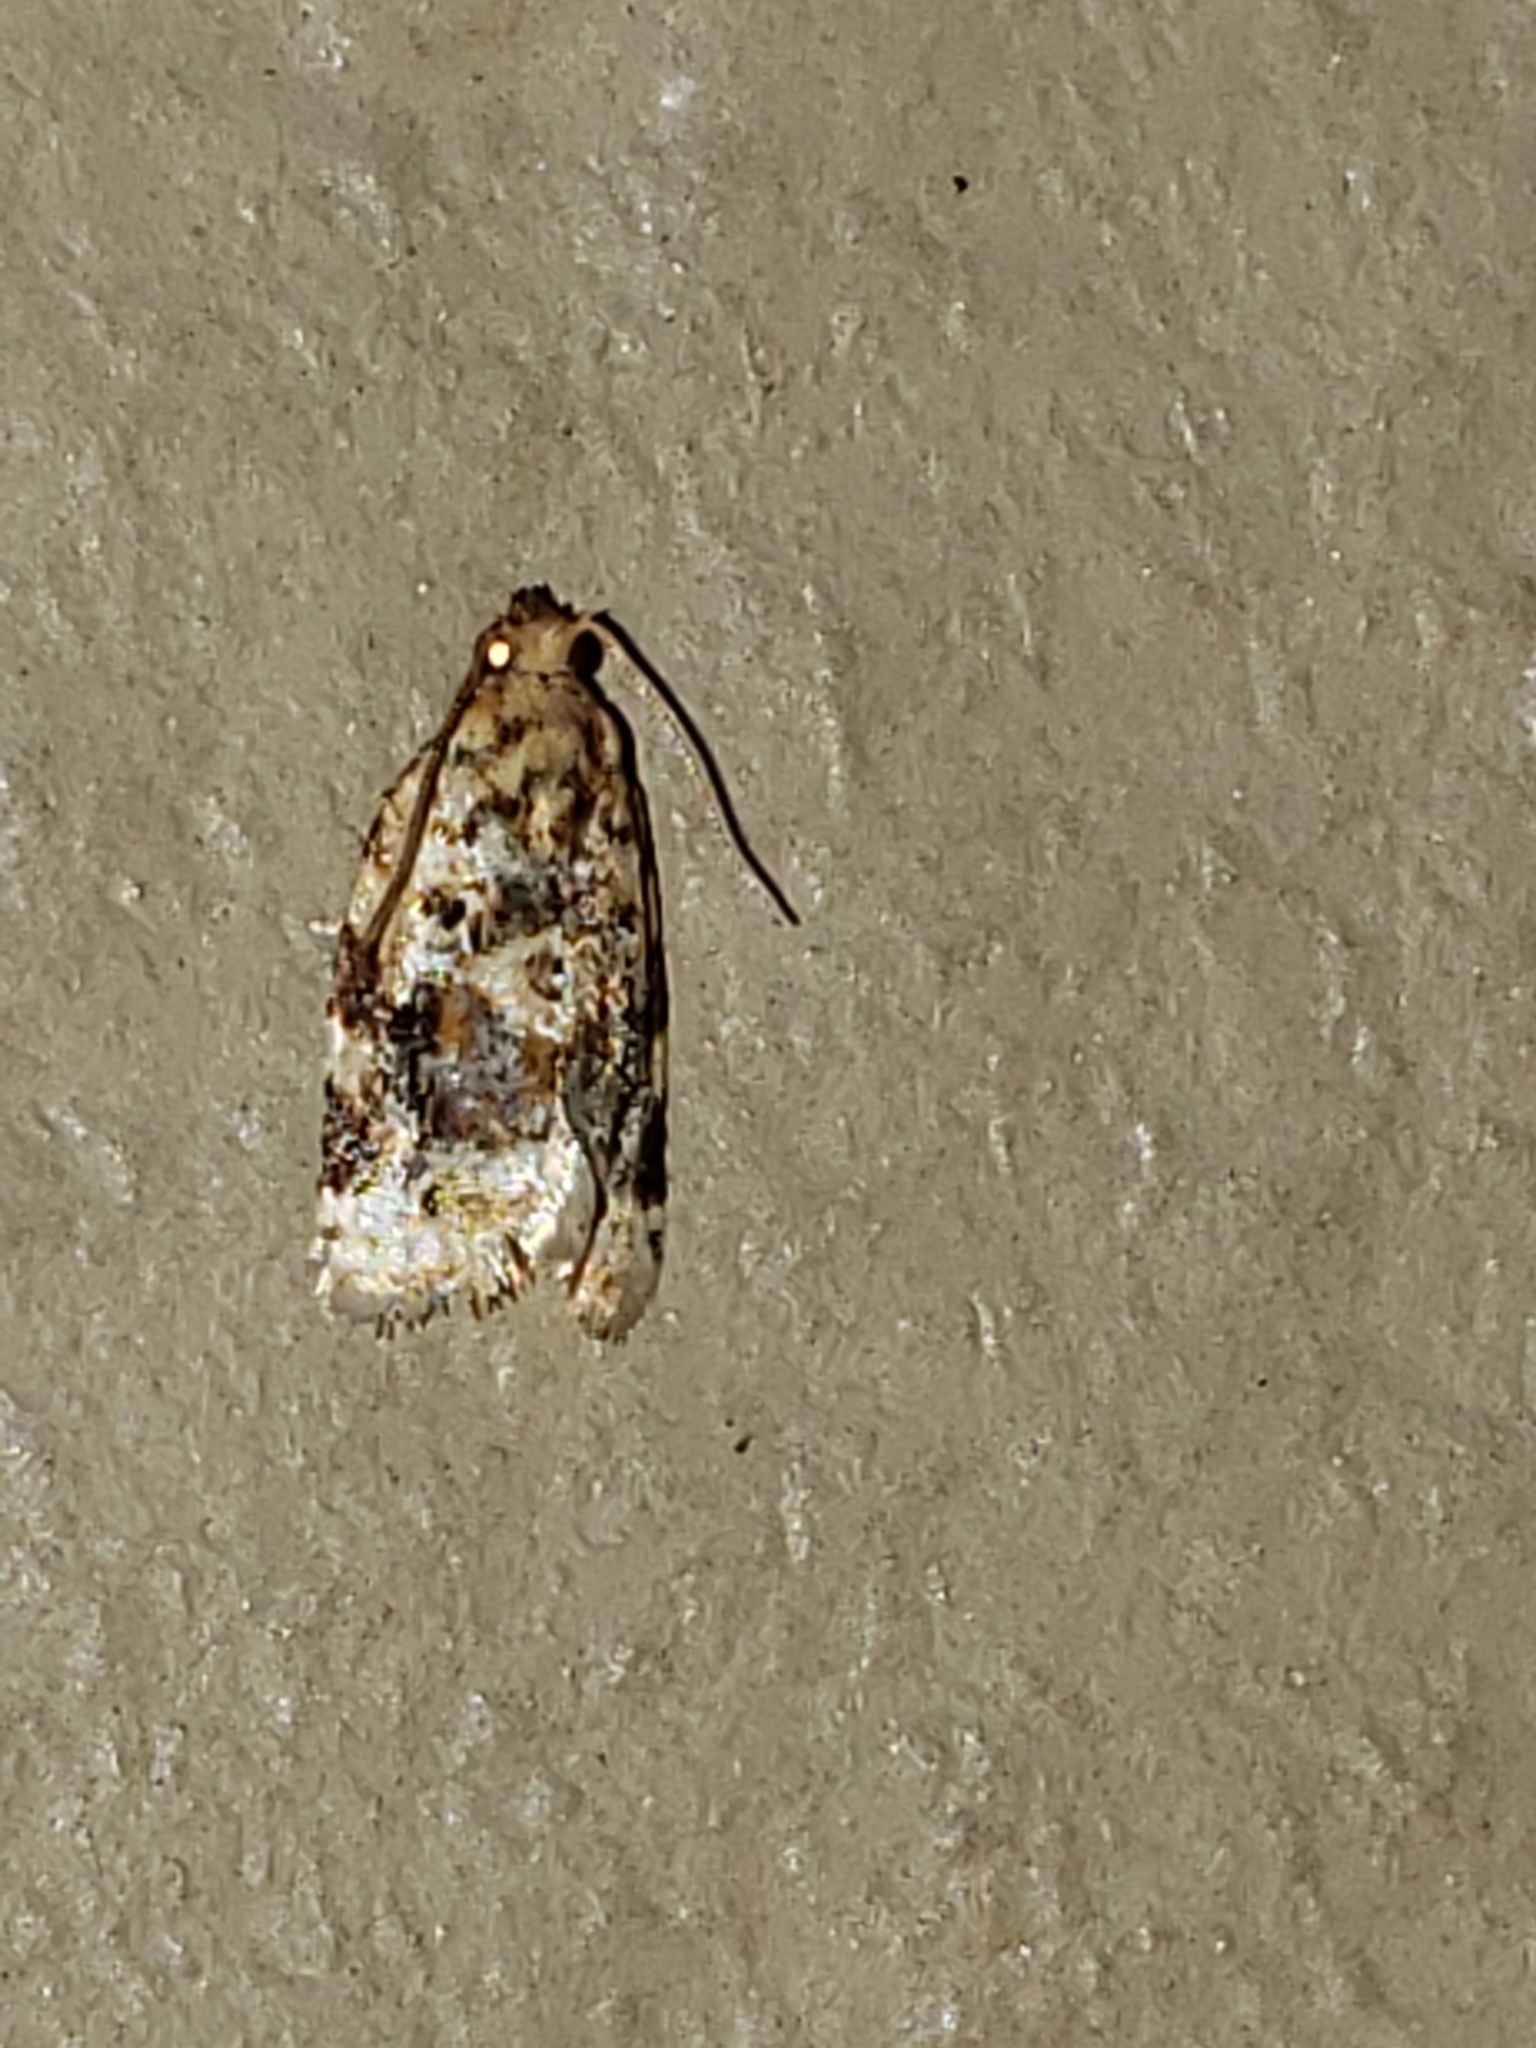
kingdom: Animalia
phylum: Arthropoda
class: Insecta
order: Lepidoptera
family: Tortricidae
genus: Argyrotaenia
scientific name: Argyrotaenia velutinana
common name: Red-banded leafroller moth
